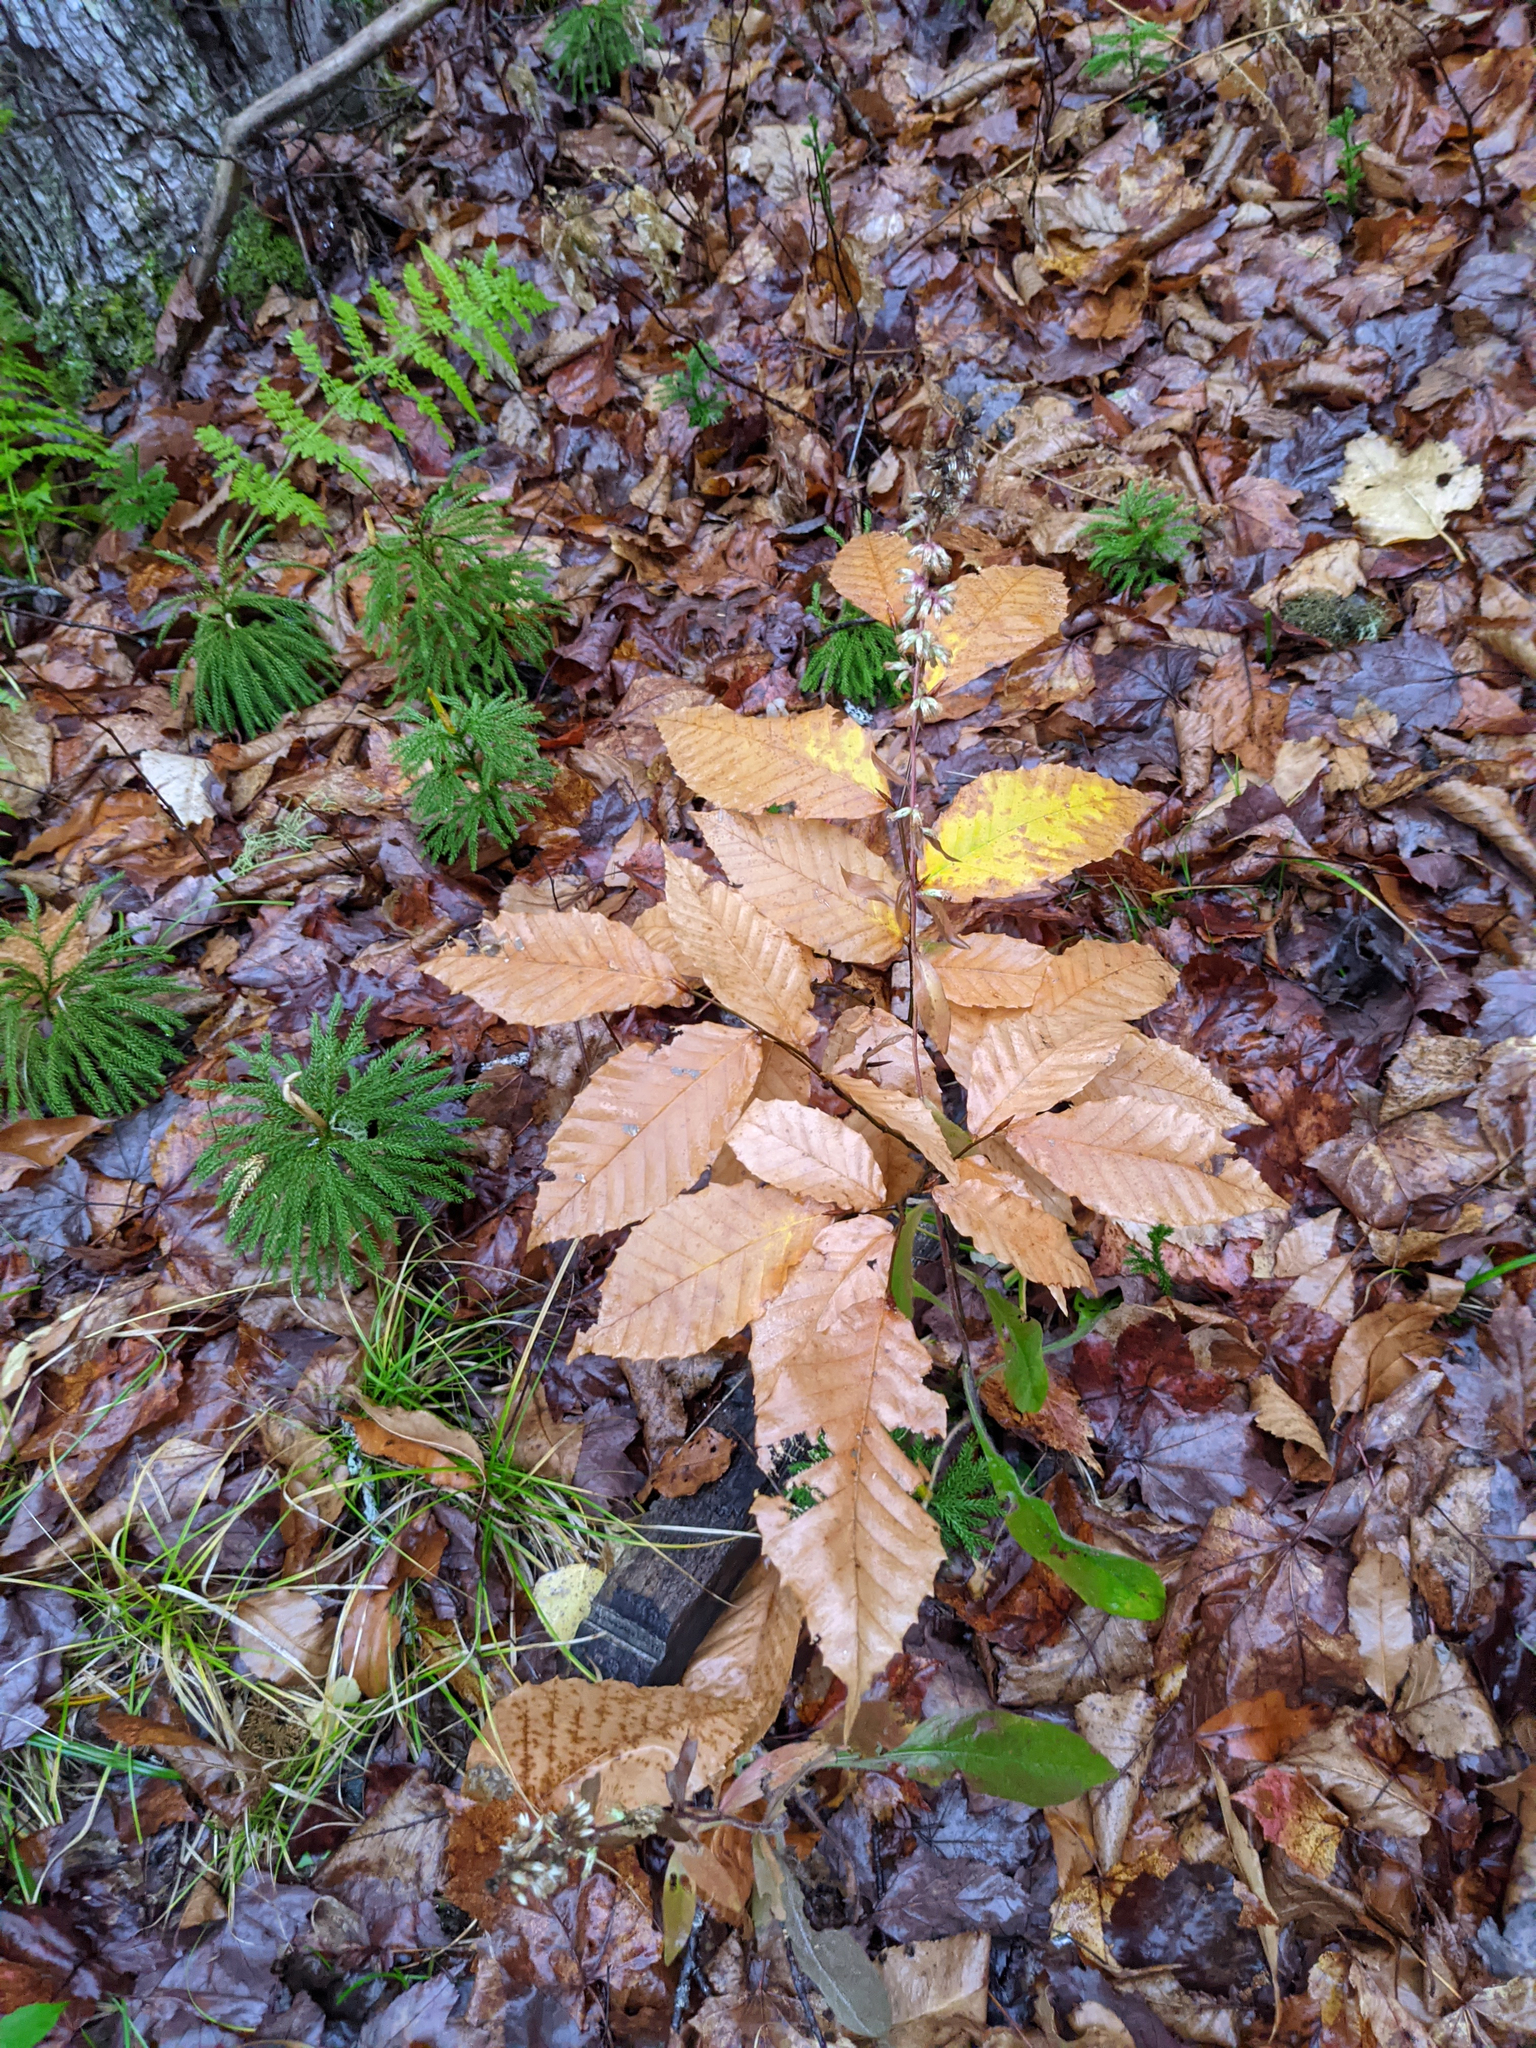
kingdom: Plantae
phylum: Tracheophyta
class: Magnoliopsida
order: Fagales
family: Fagaceae
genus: Fagus
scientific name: Fagus grandifolia
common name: American beech
